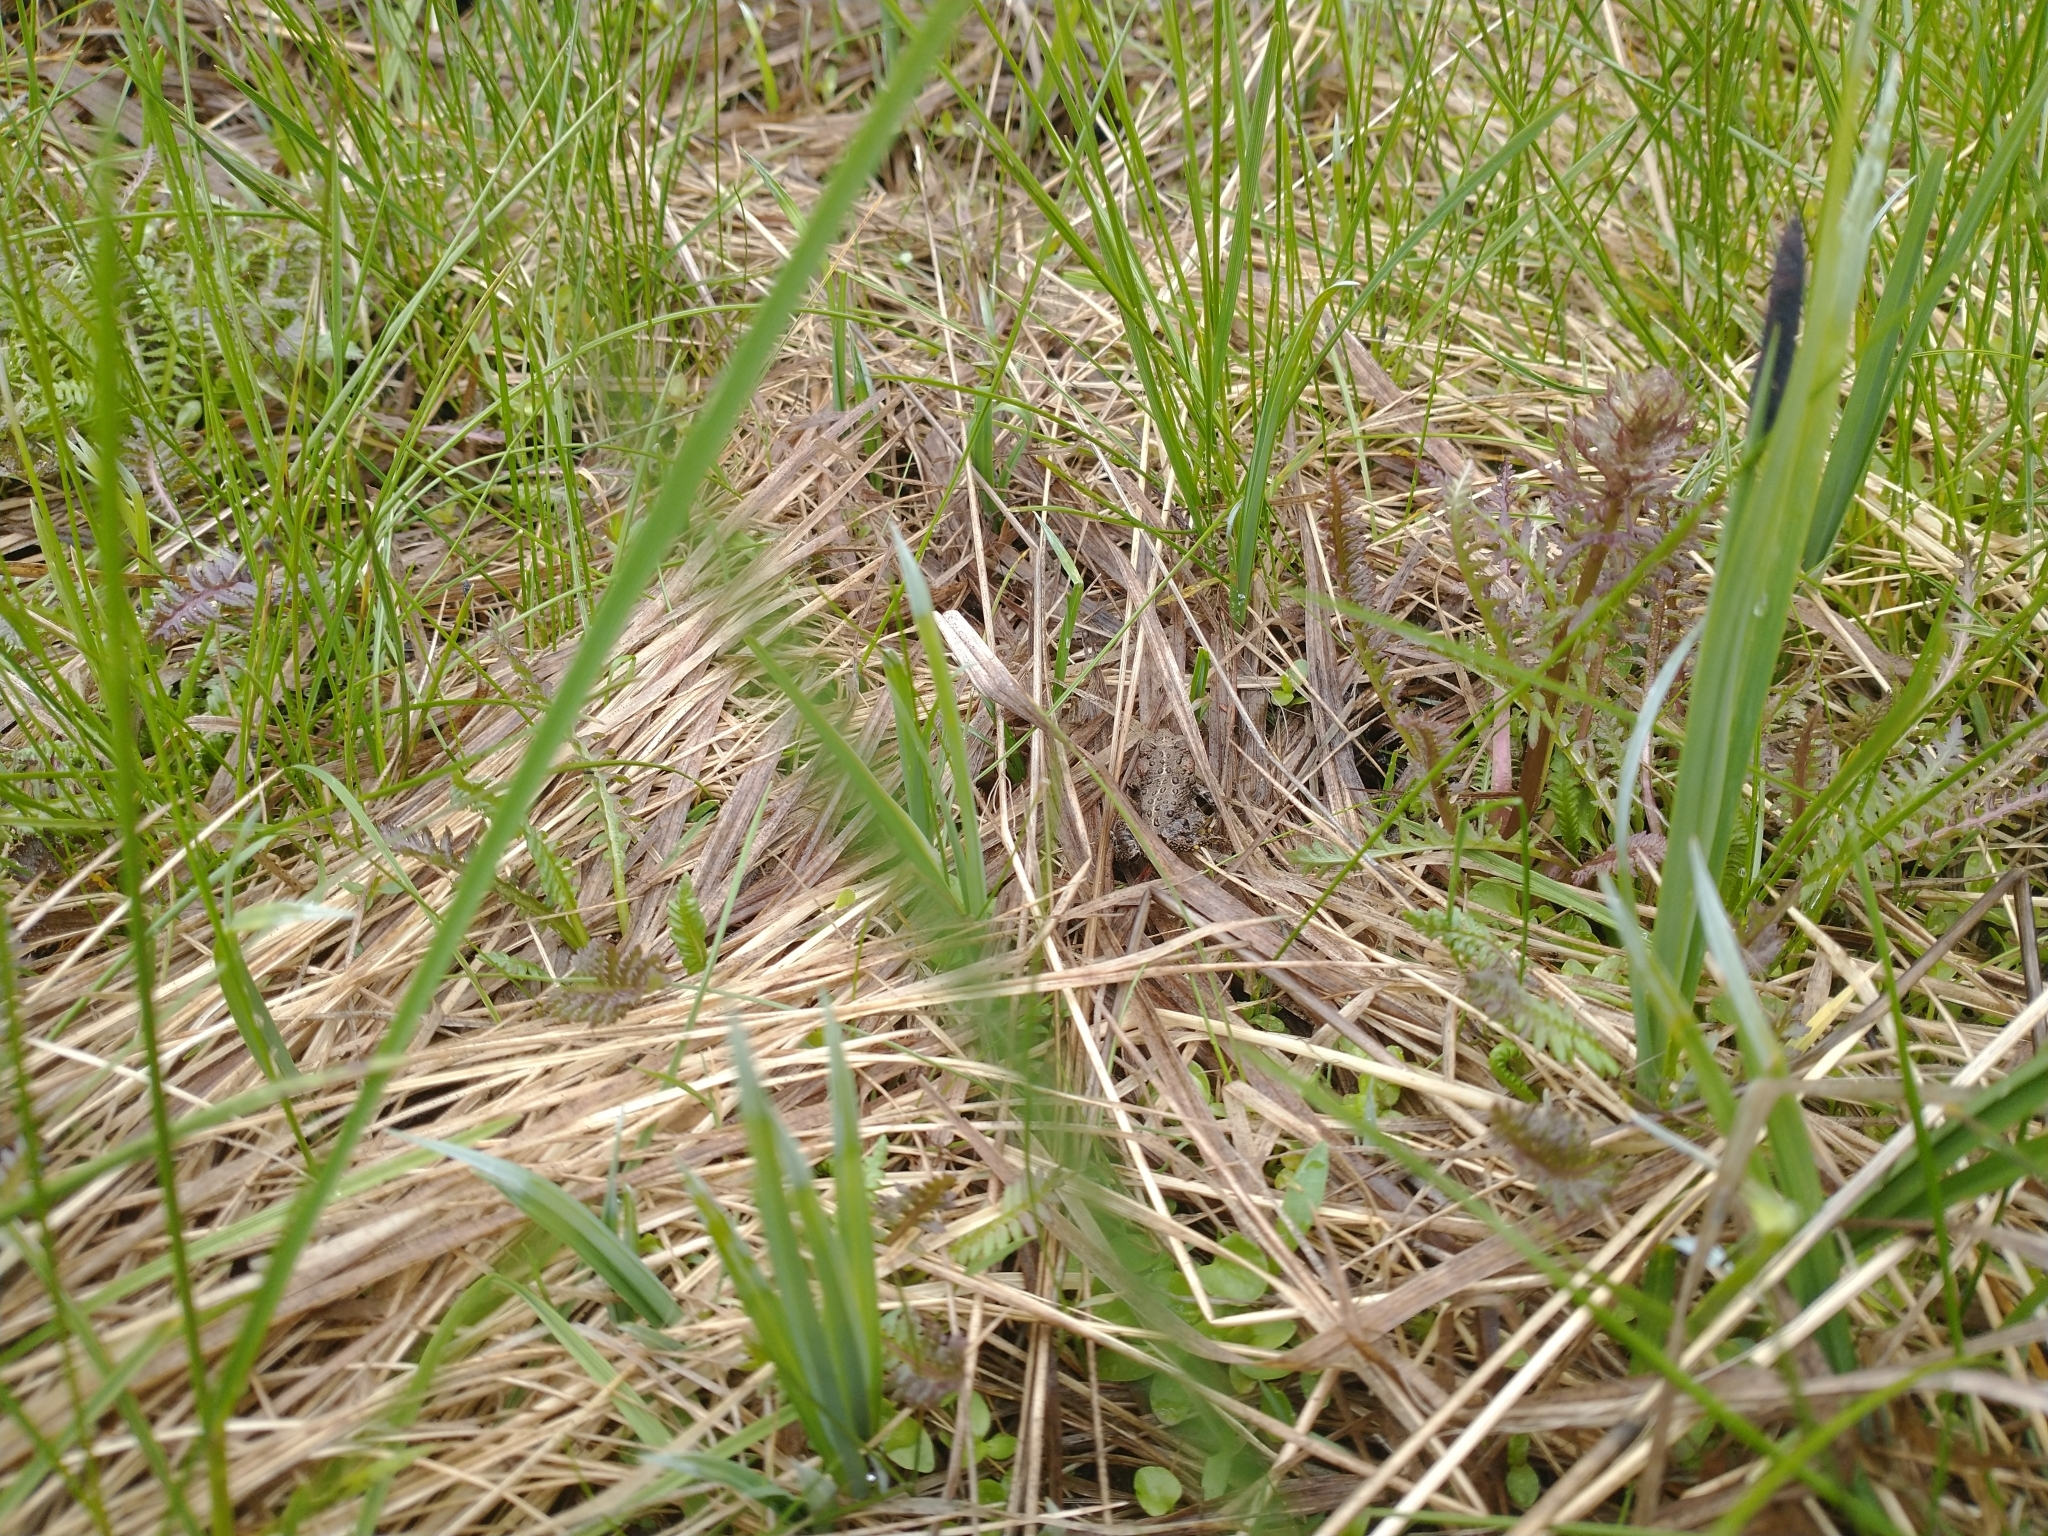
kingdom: Animalia
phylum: Chordata
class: Amphibia
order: Anura
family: Bufonidae
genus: Anaxyrus
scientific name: Anaxyrus boreas
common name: Western toad
